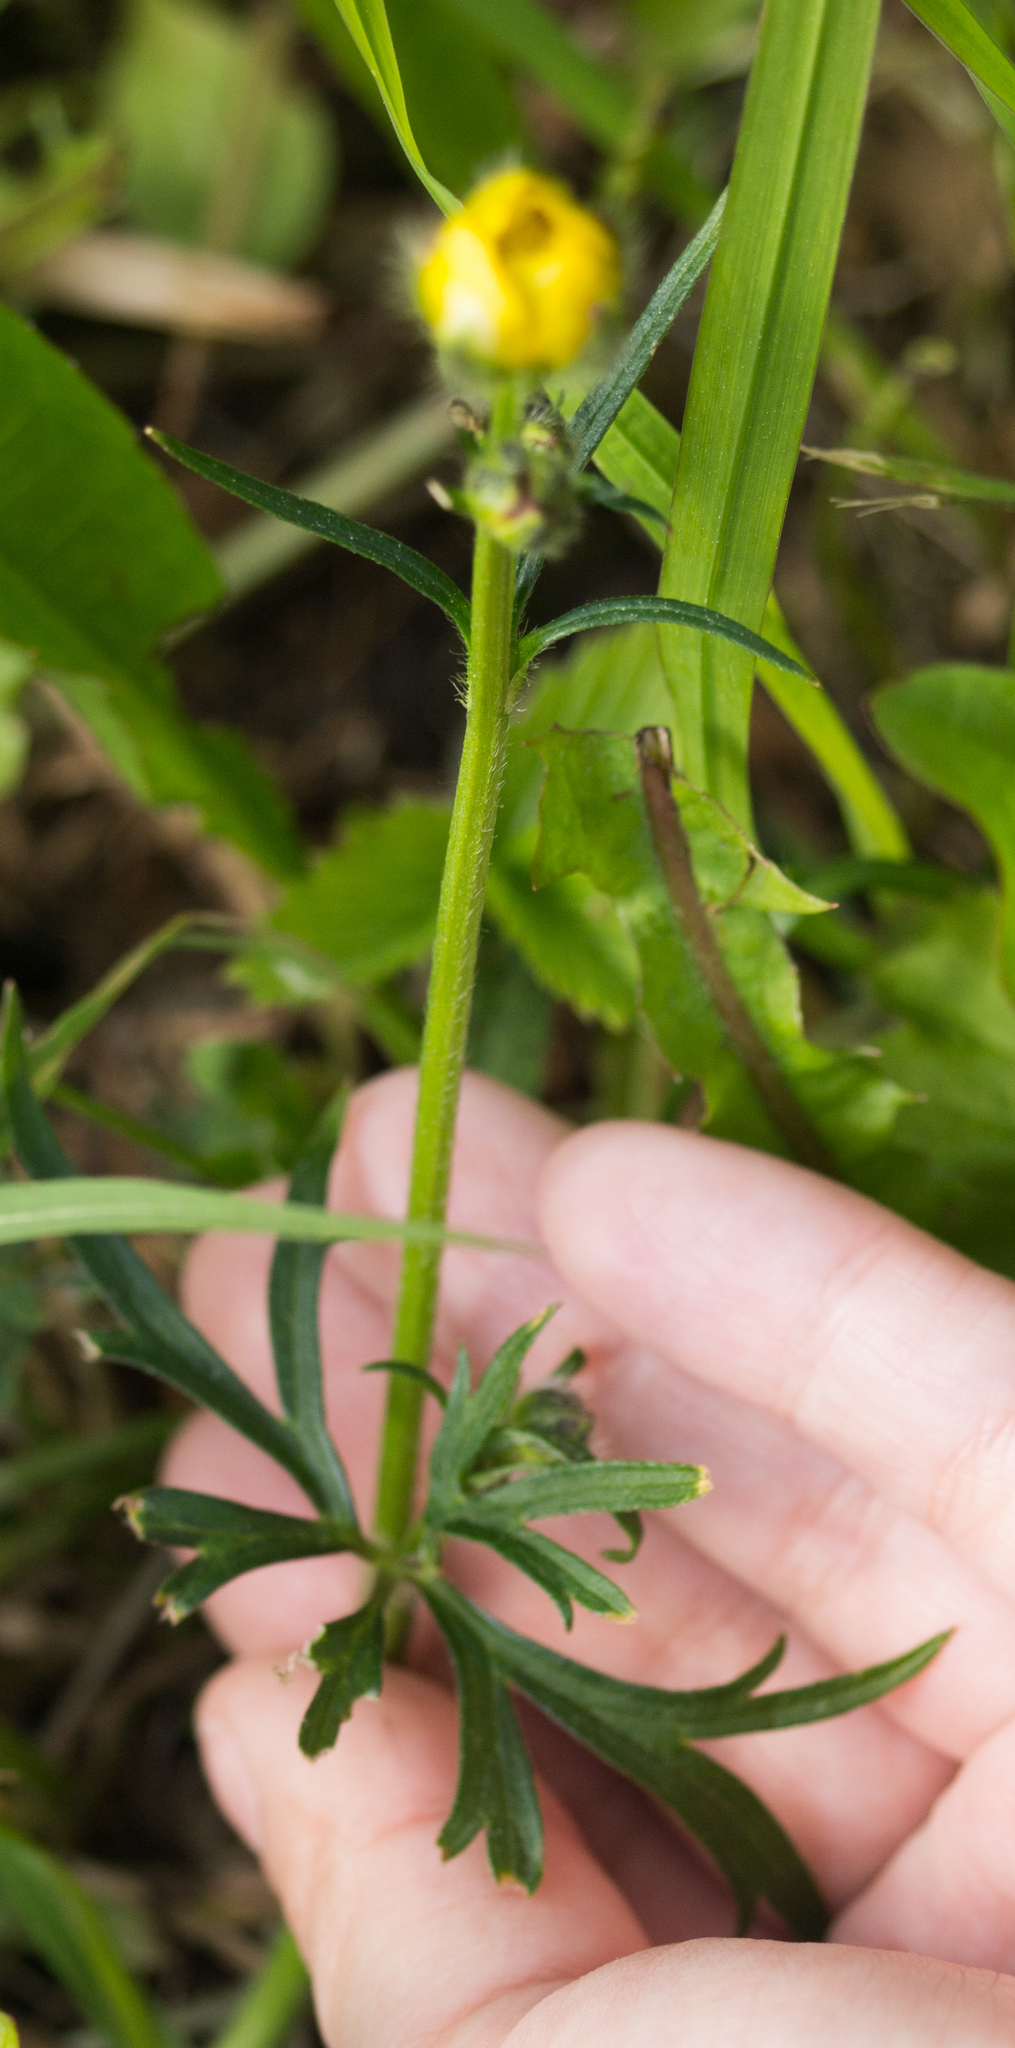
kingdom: Plantae
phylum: Tracheophyta
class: Magnoliopsida
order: Ranunculales
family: Ranunculaceae
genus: Ranunculus
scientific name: Ranunculus polyanthemos
